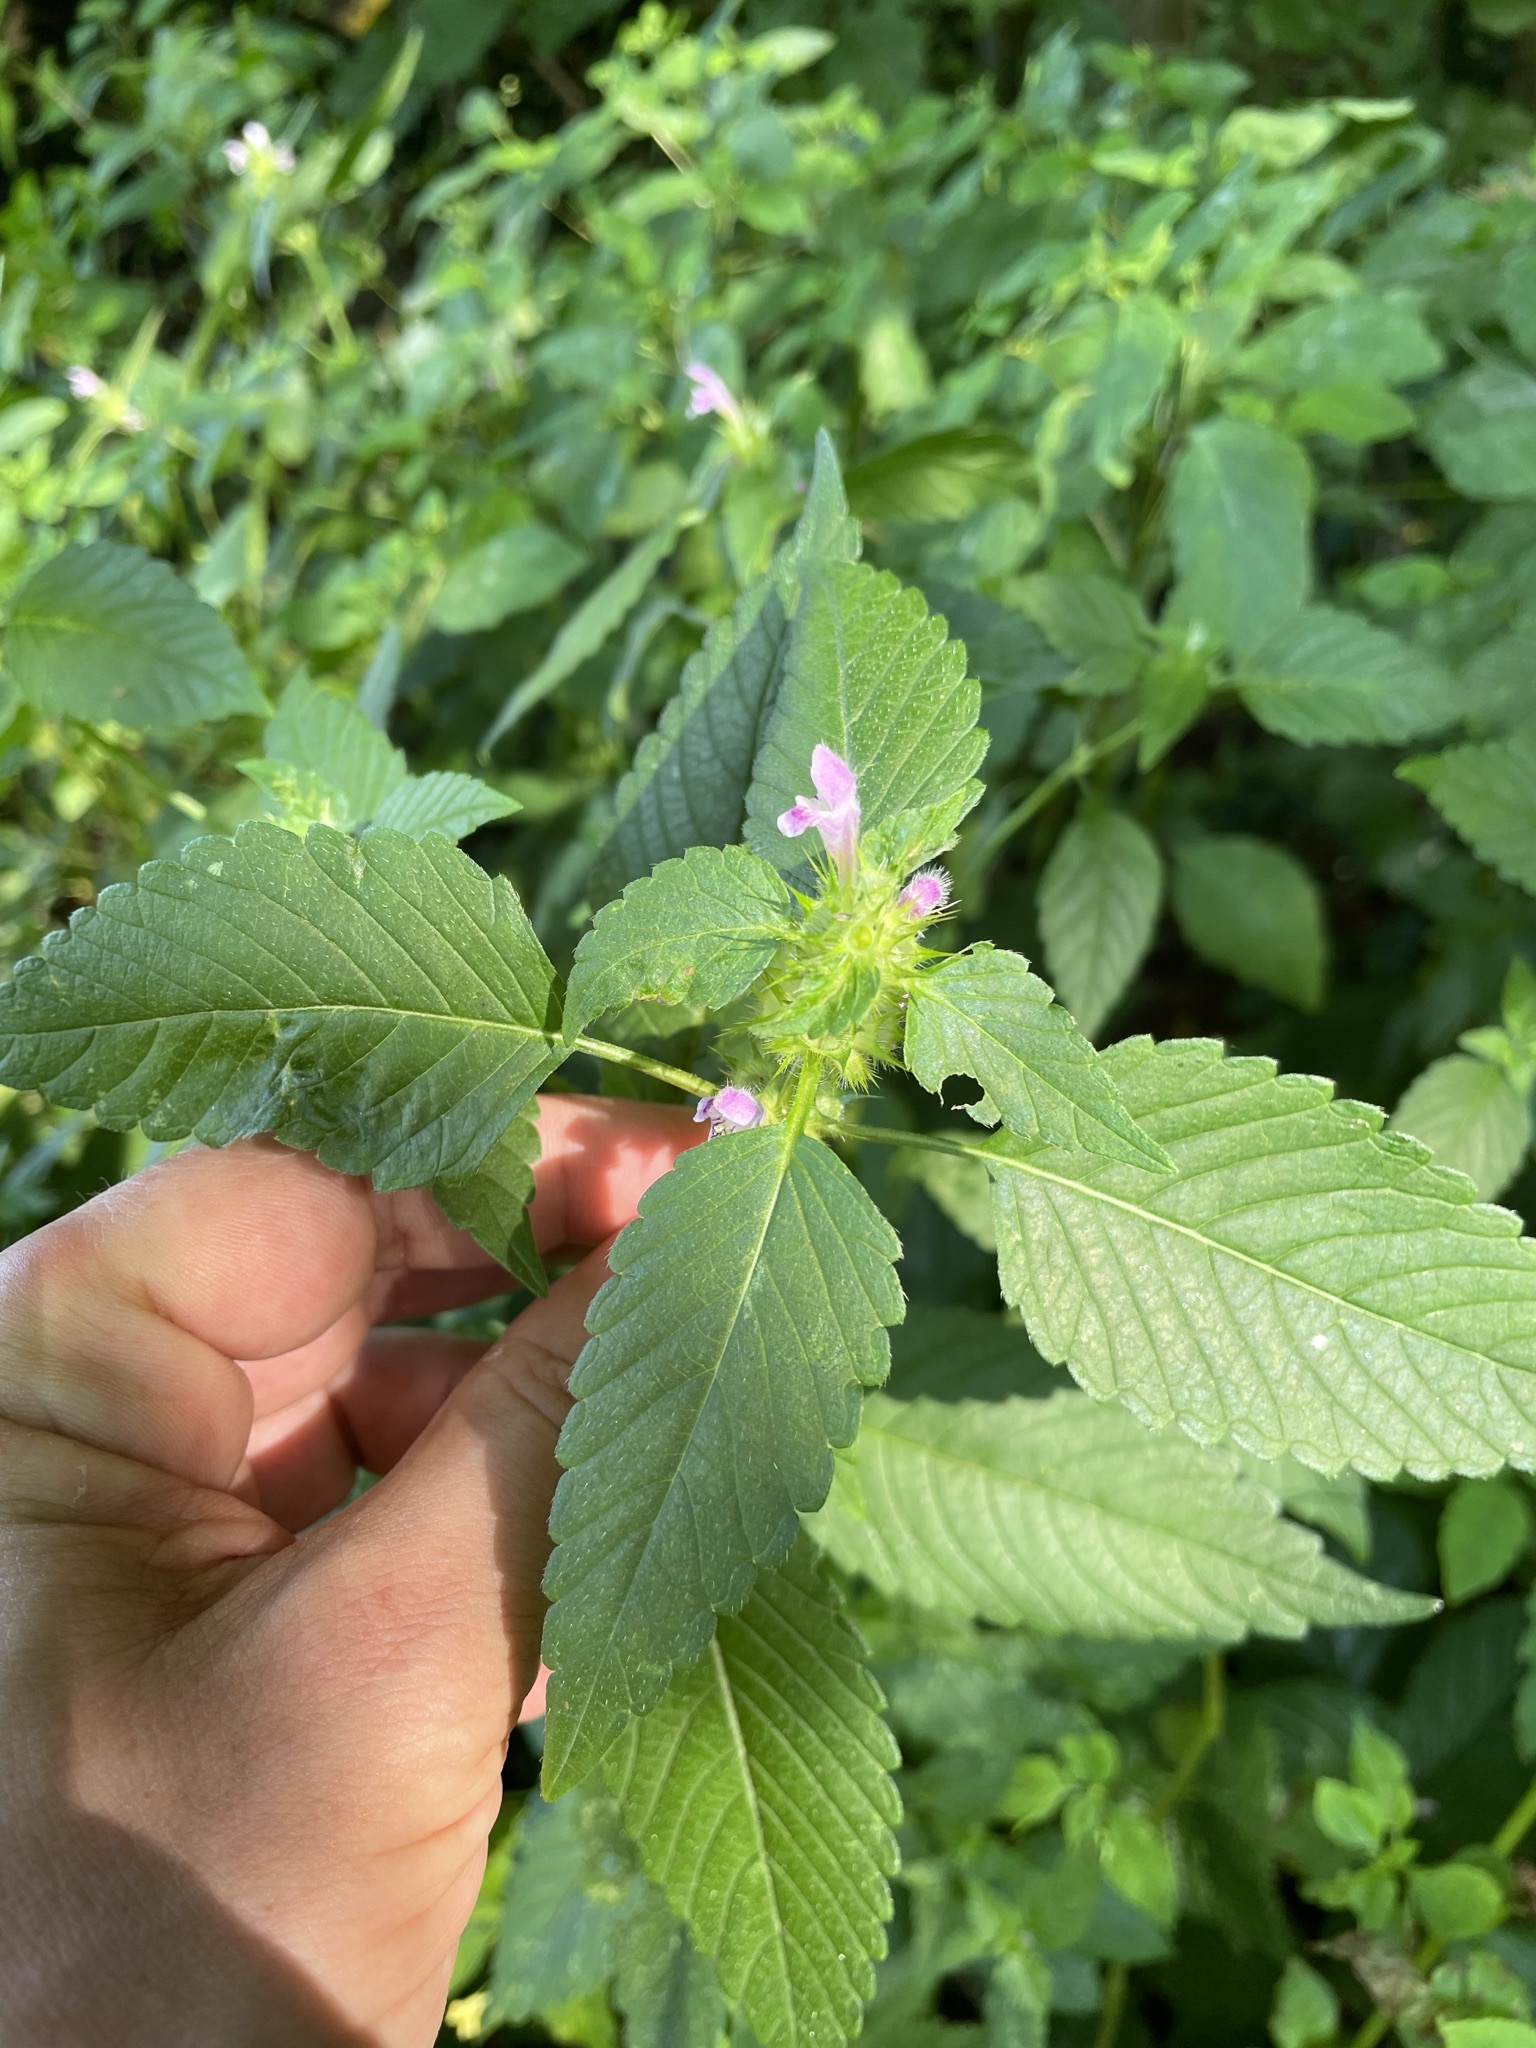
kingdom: Plantae
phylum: Tracheophyta
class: Magnoliopsida
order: Lamiales
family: Lamiaceae
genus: Galeopsis
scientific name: Galeopsis tetrahit
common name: Common hemp-nettle
